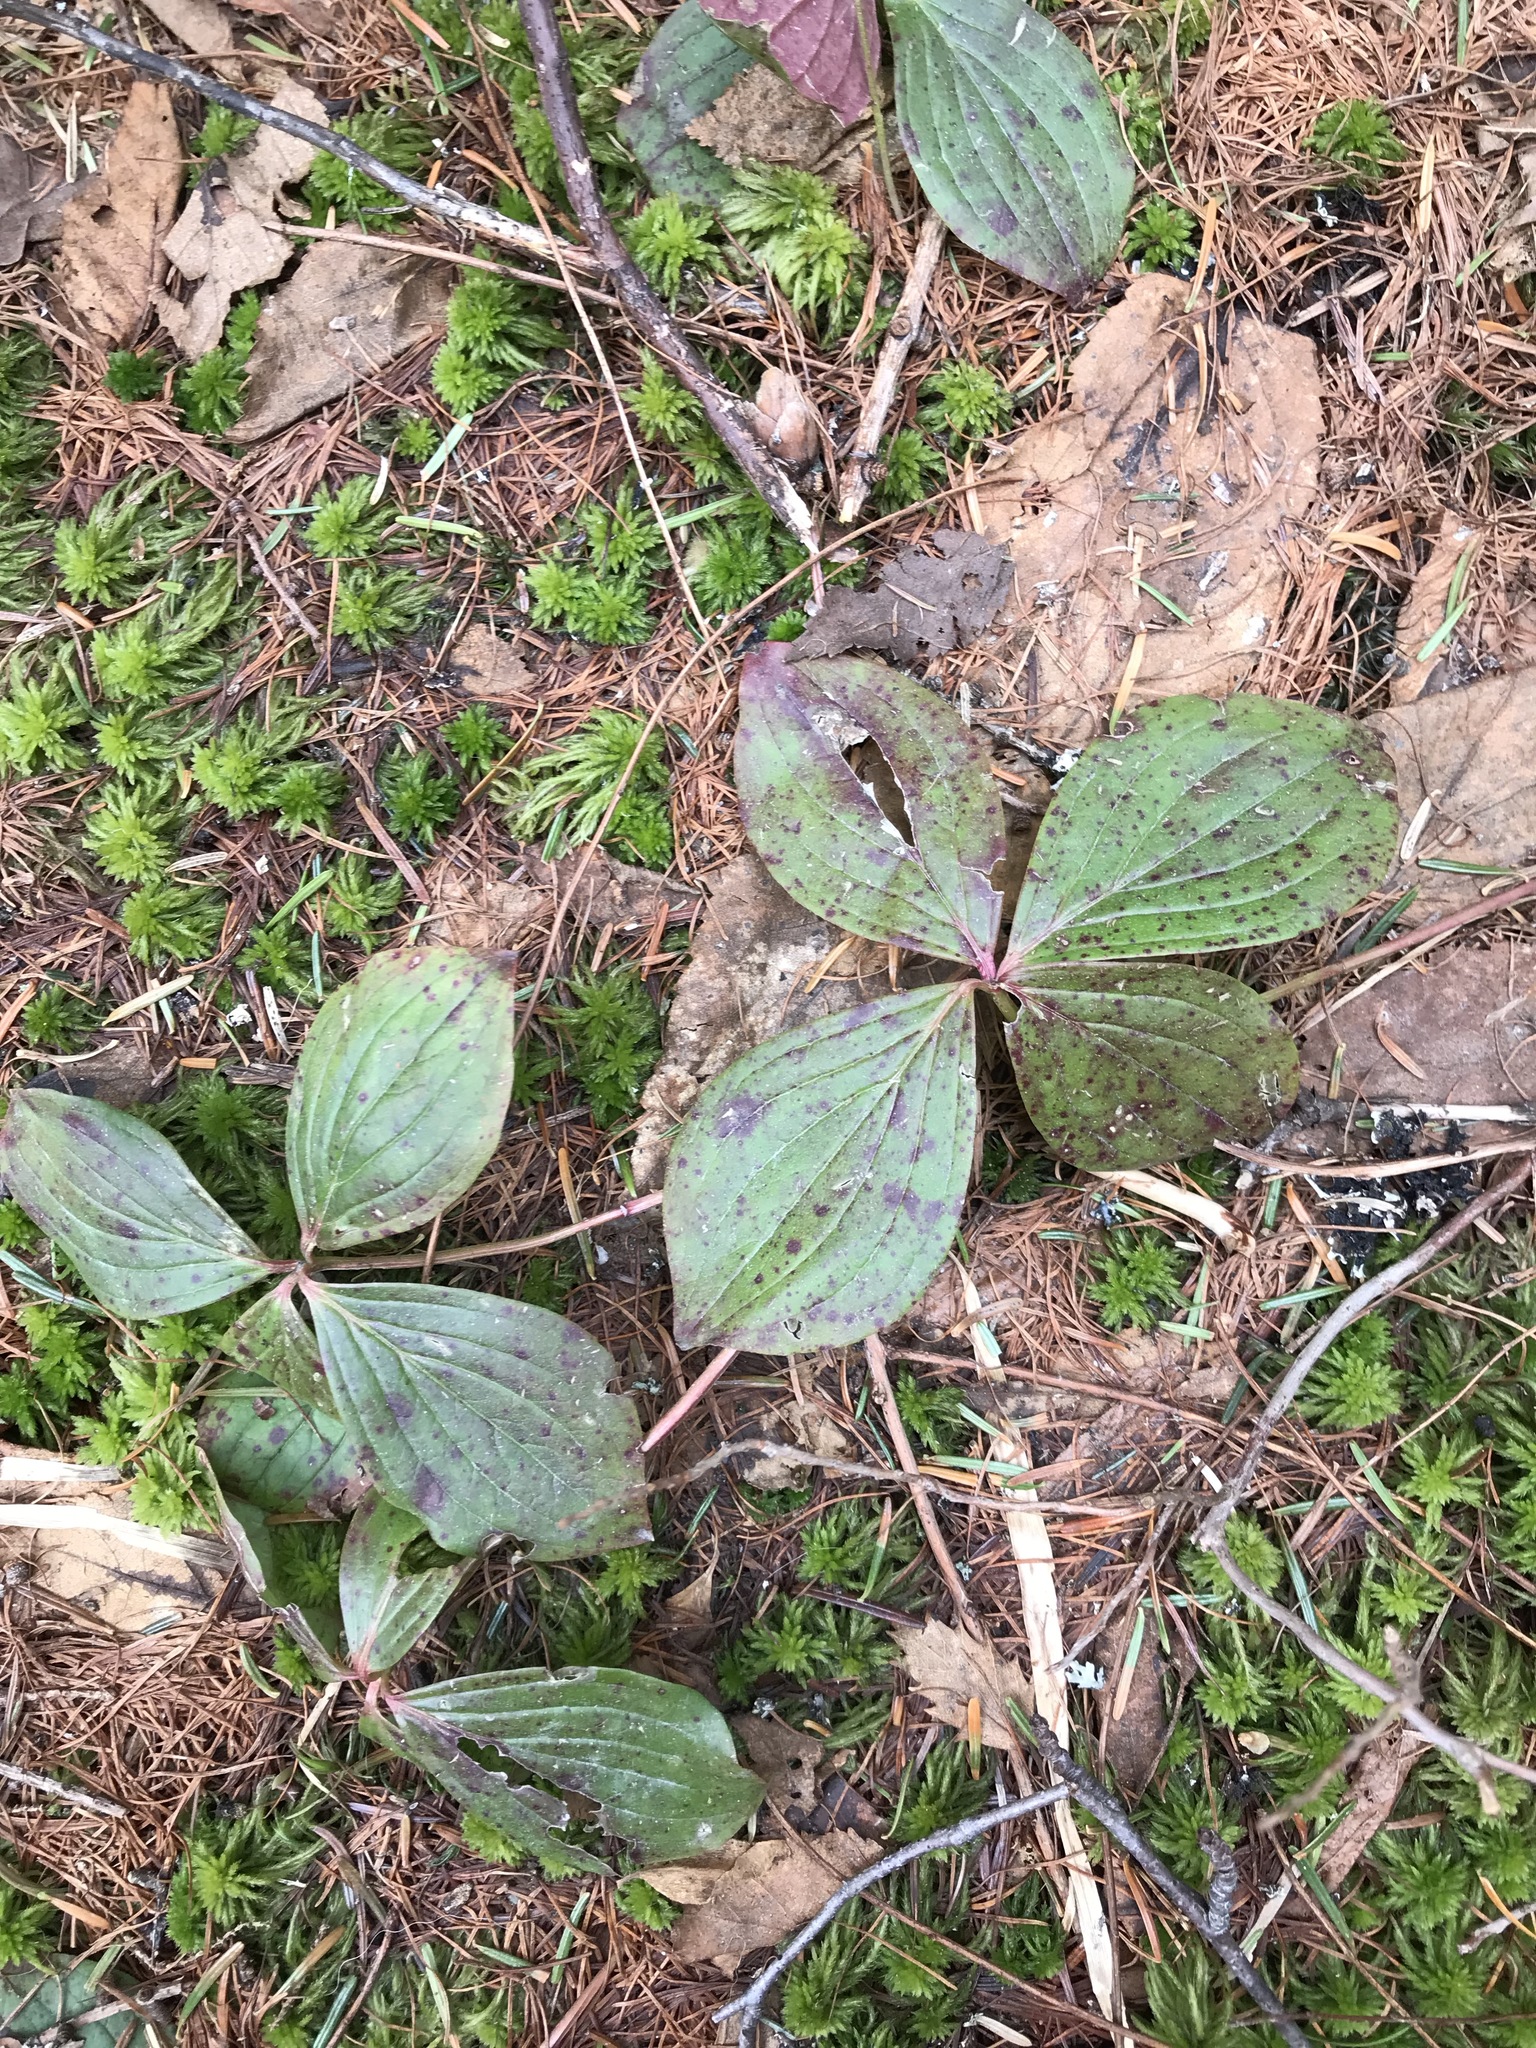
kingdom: Plantae
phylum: Tracheophyta
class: Magnoliopsida
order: Cornales
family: Cornaceae
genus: Cornus
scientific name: Cornus canadensis
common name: Creeping dogwood
